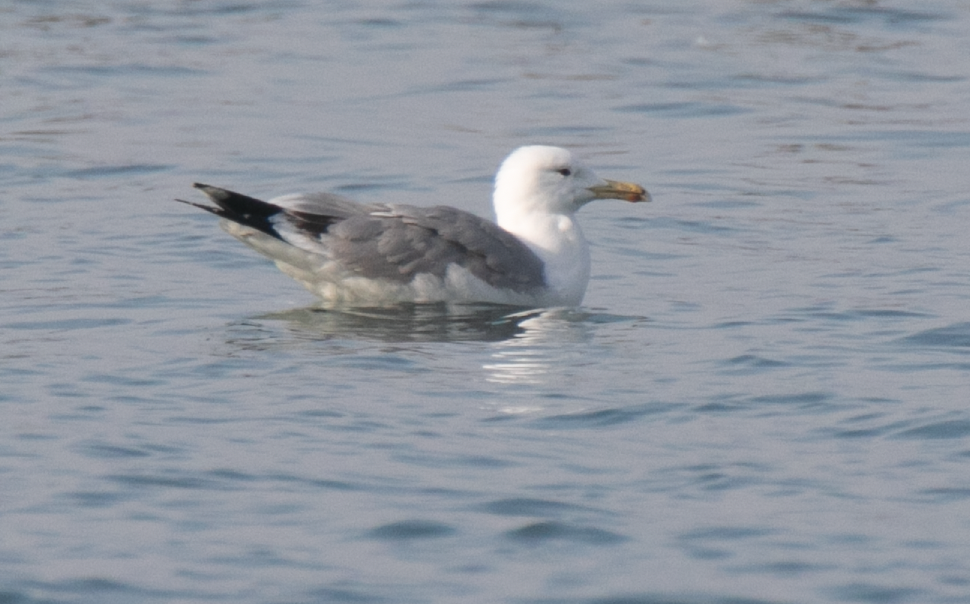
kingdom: Animalia
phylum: Chordata
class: Aves
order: Charadriiformes
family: Laridae
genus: Larus
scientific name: Larus cachinnans
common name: Caspian gull
